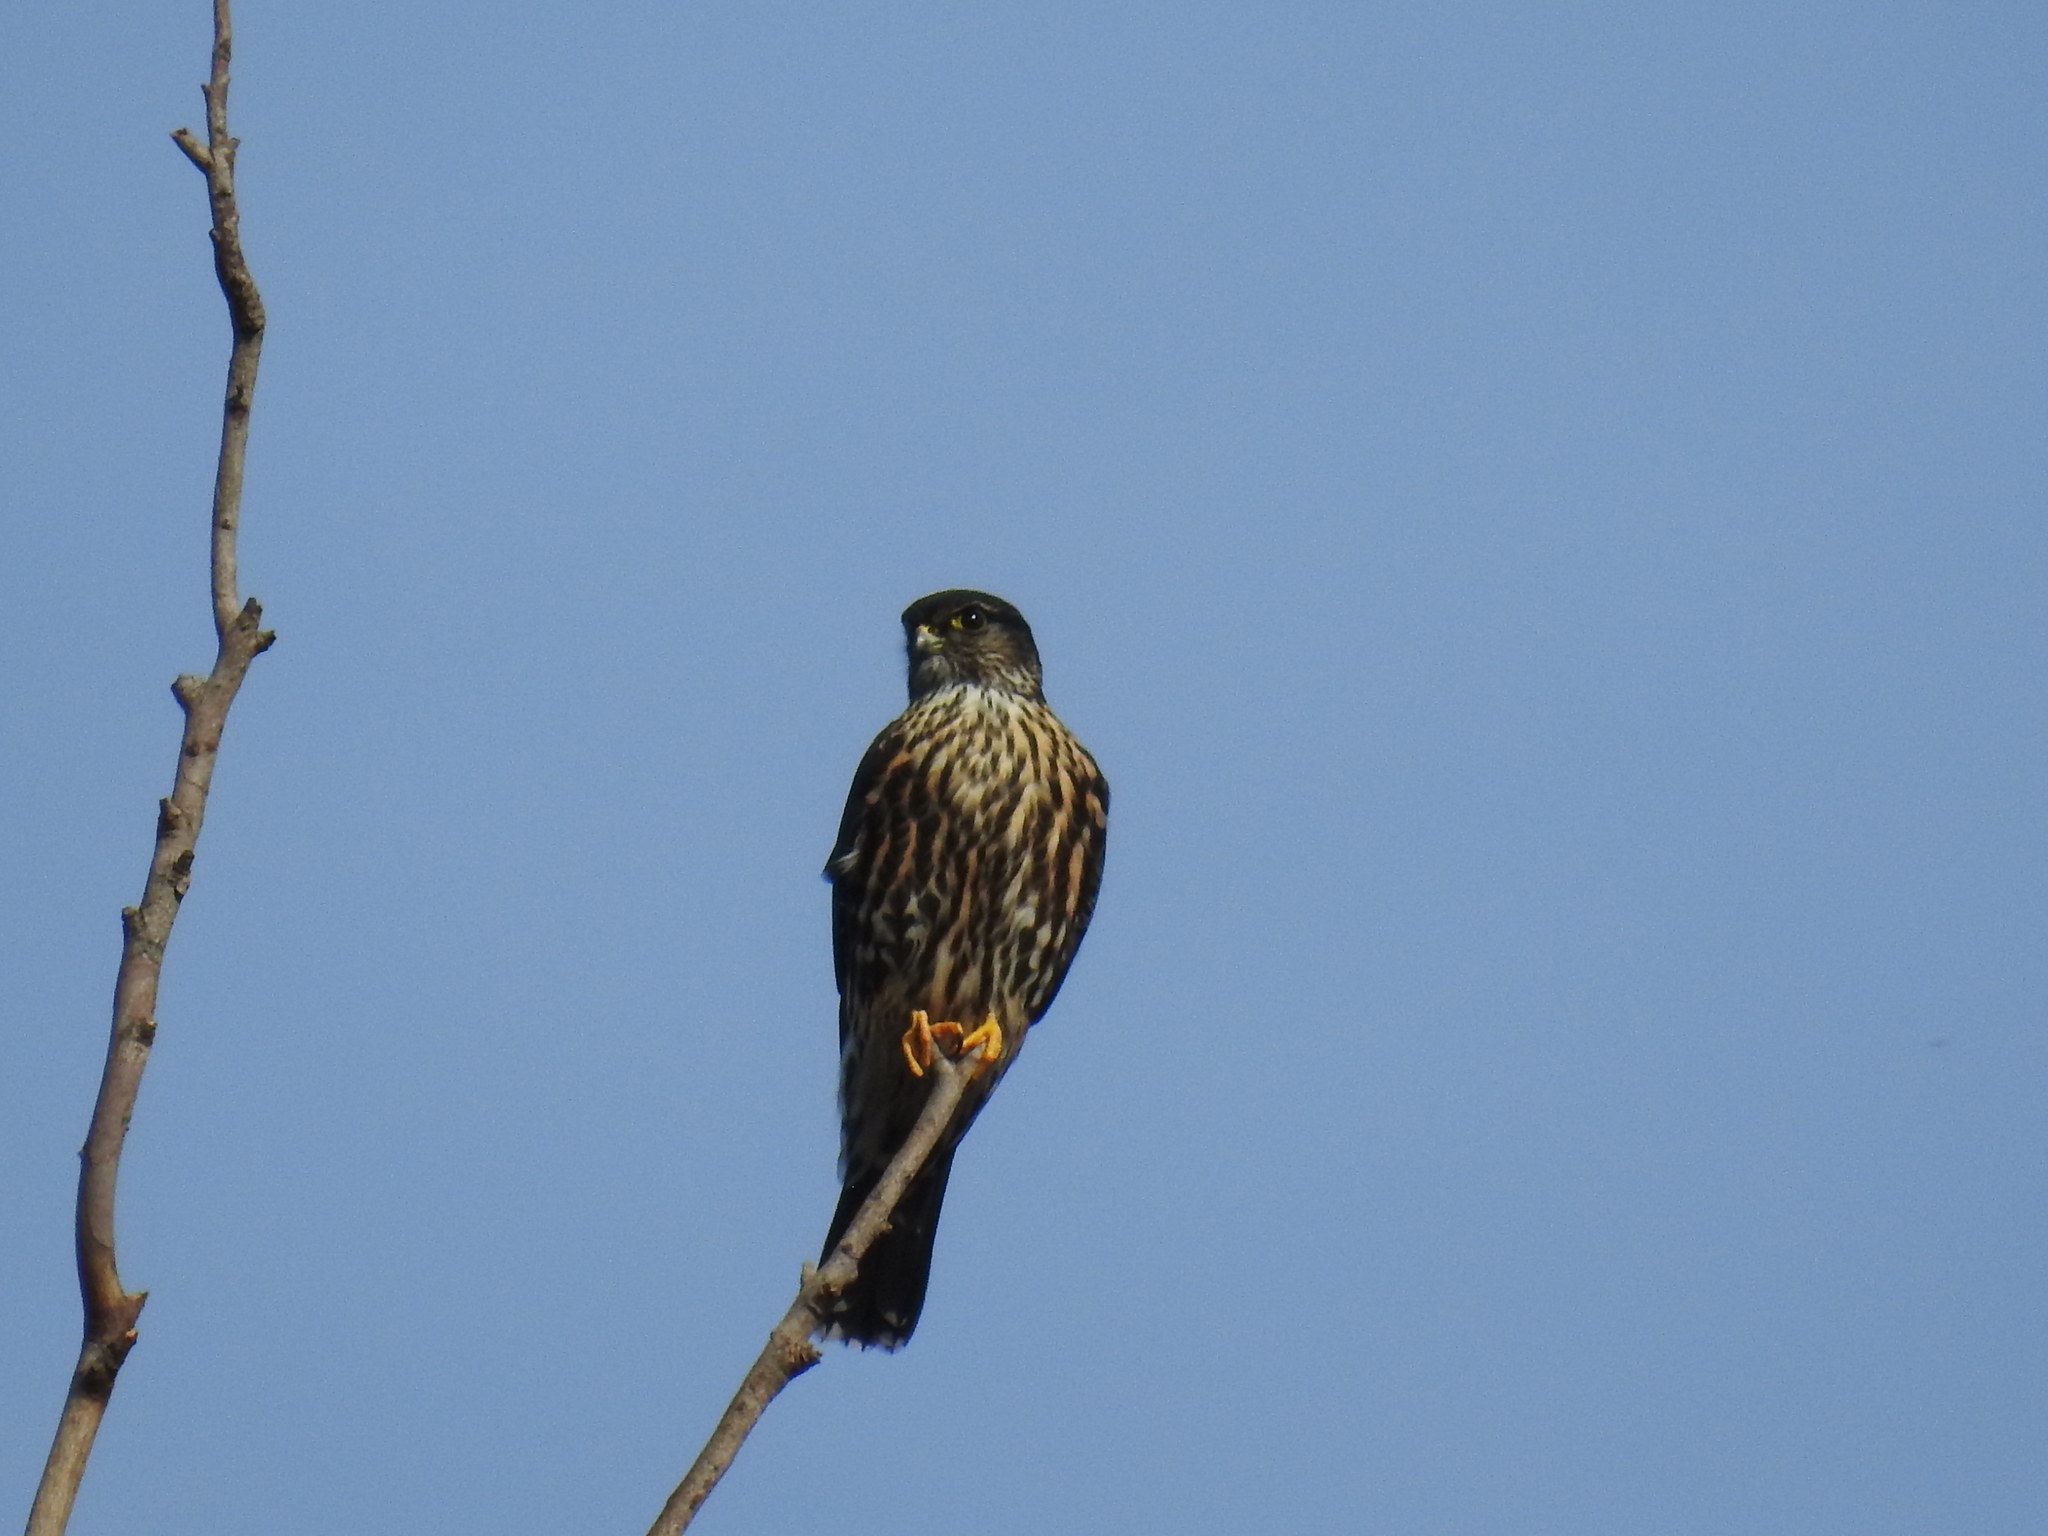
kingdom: Animalia
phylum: Chordata
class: Aves
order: Falconiformes
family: Falconidae
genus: Falco
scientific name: Falco columbarius
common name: Merlin
